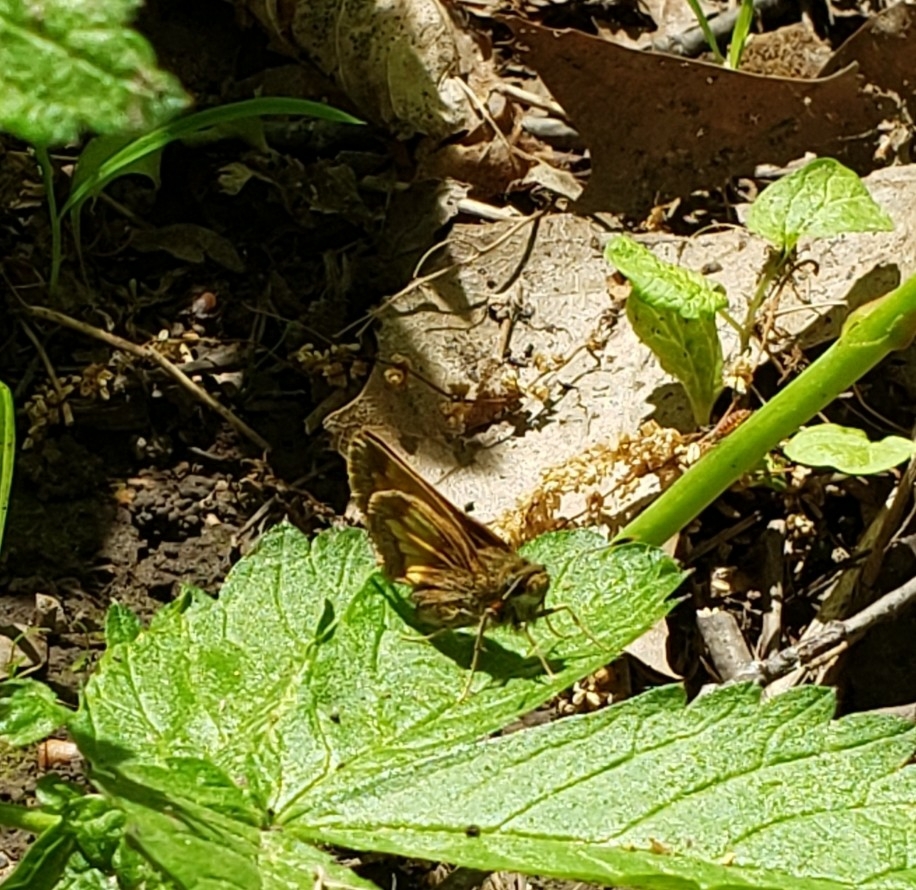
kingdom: Animalia
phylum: Arthropoda
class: Insecta
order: Lepidoptera
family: Hesperiidae
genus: Lon
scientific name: Lon hobomok
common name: Hobomok skipper
